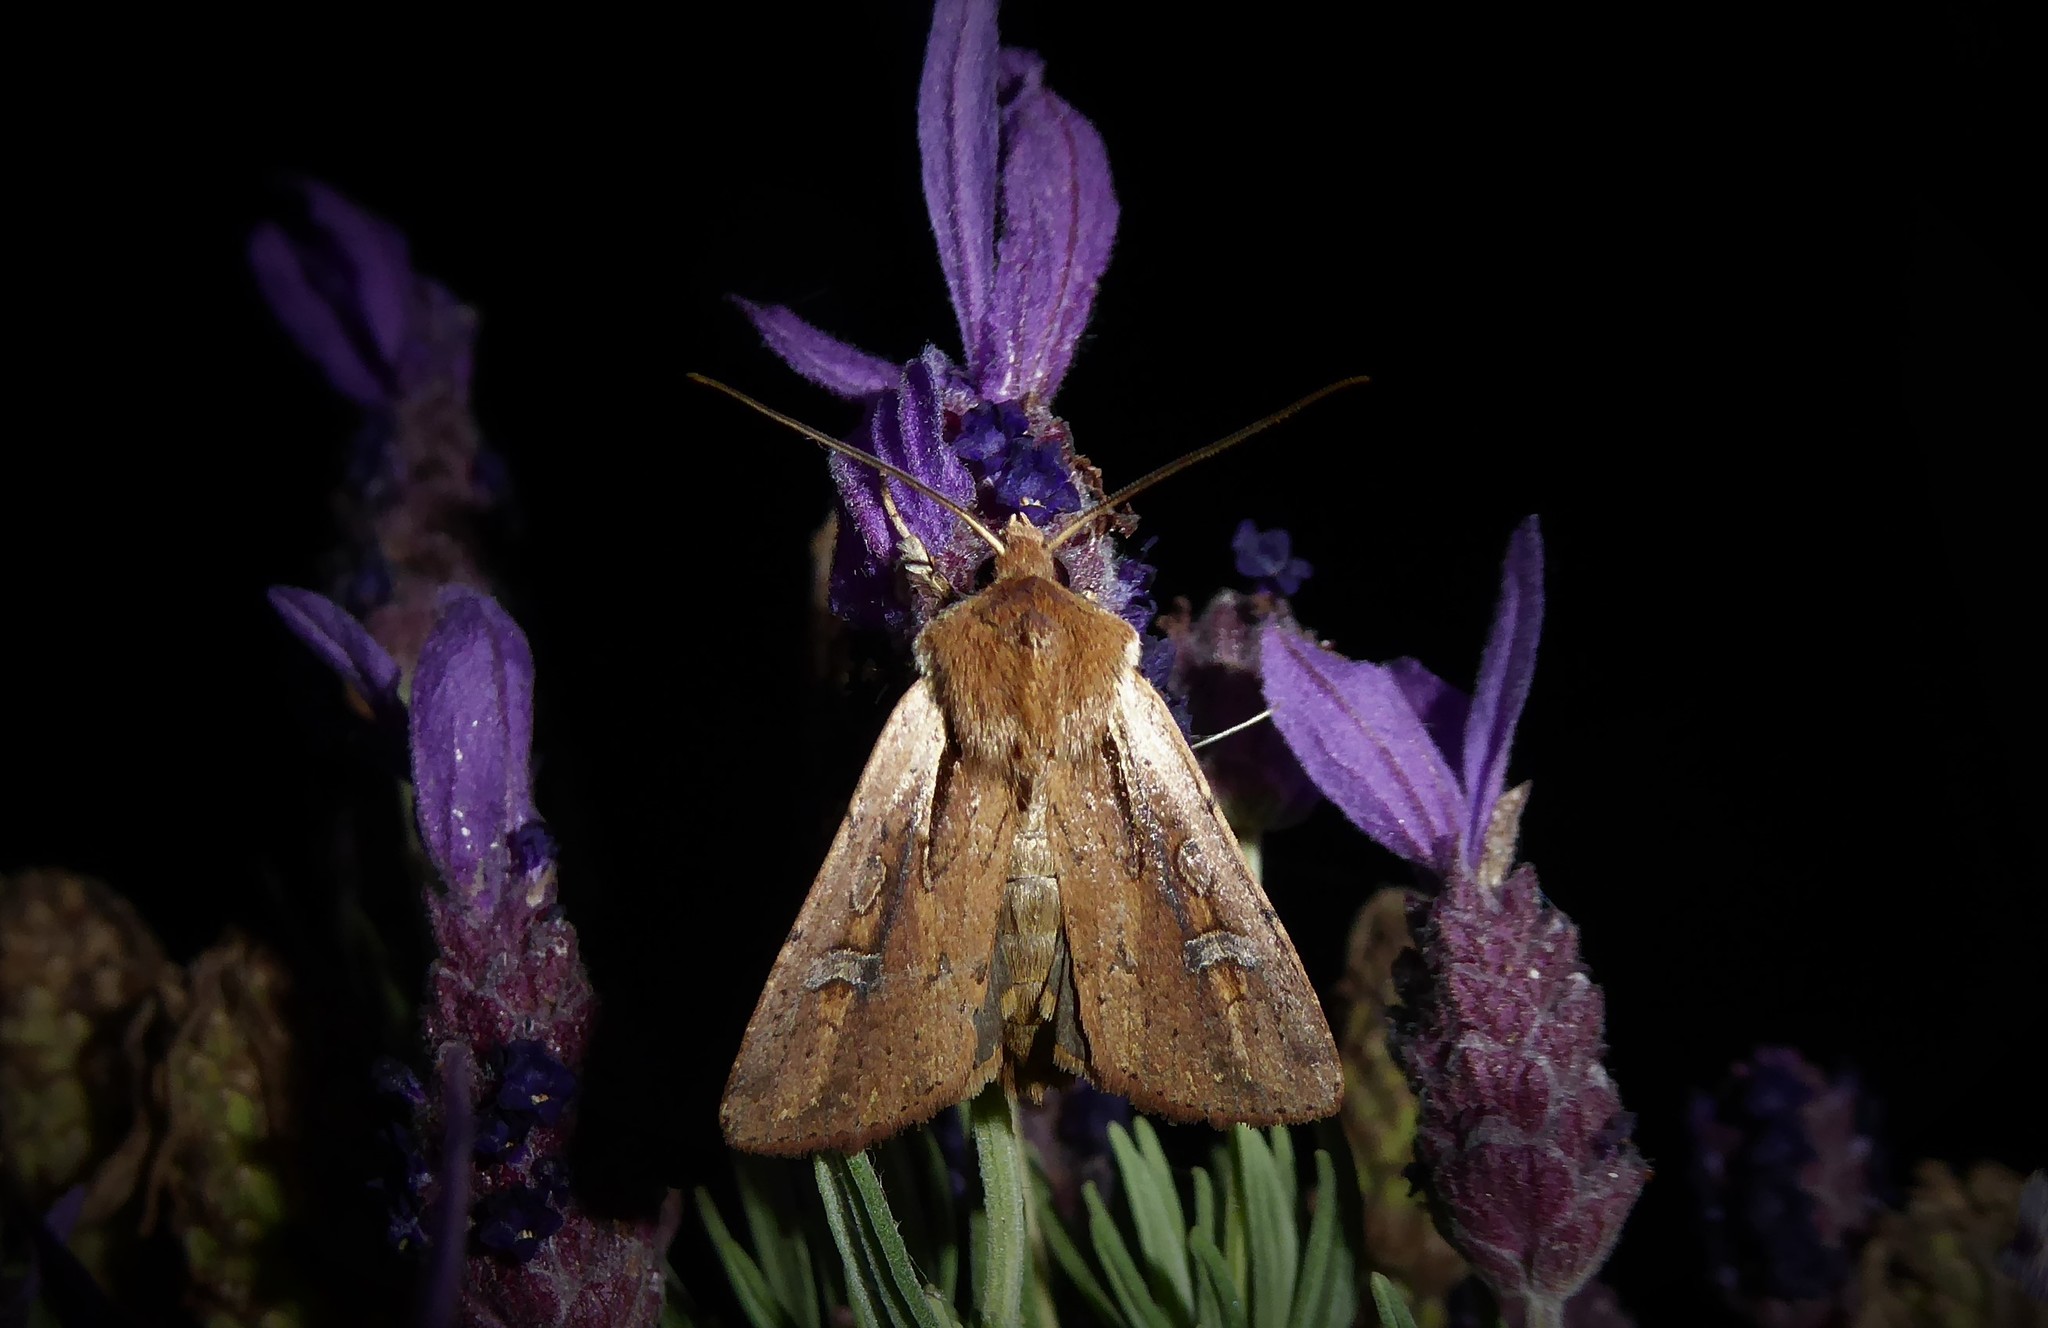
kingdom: Animalia
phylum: Arthropoda
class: Insecta
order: Lepidoptera
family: Noctuidae
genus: Ichneutica
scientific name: Ichneutica atristriga
